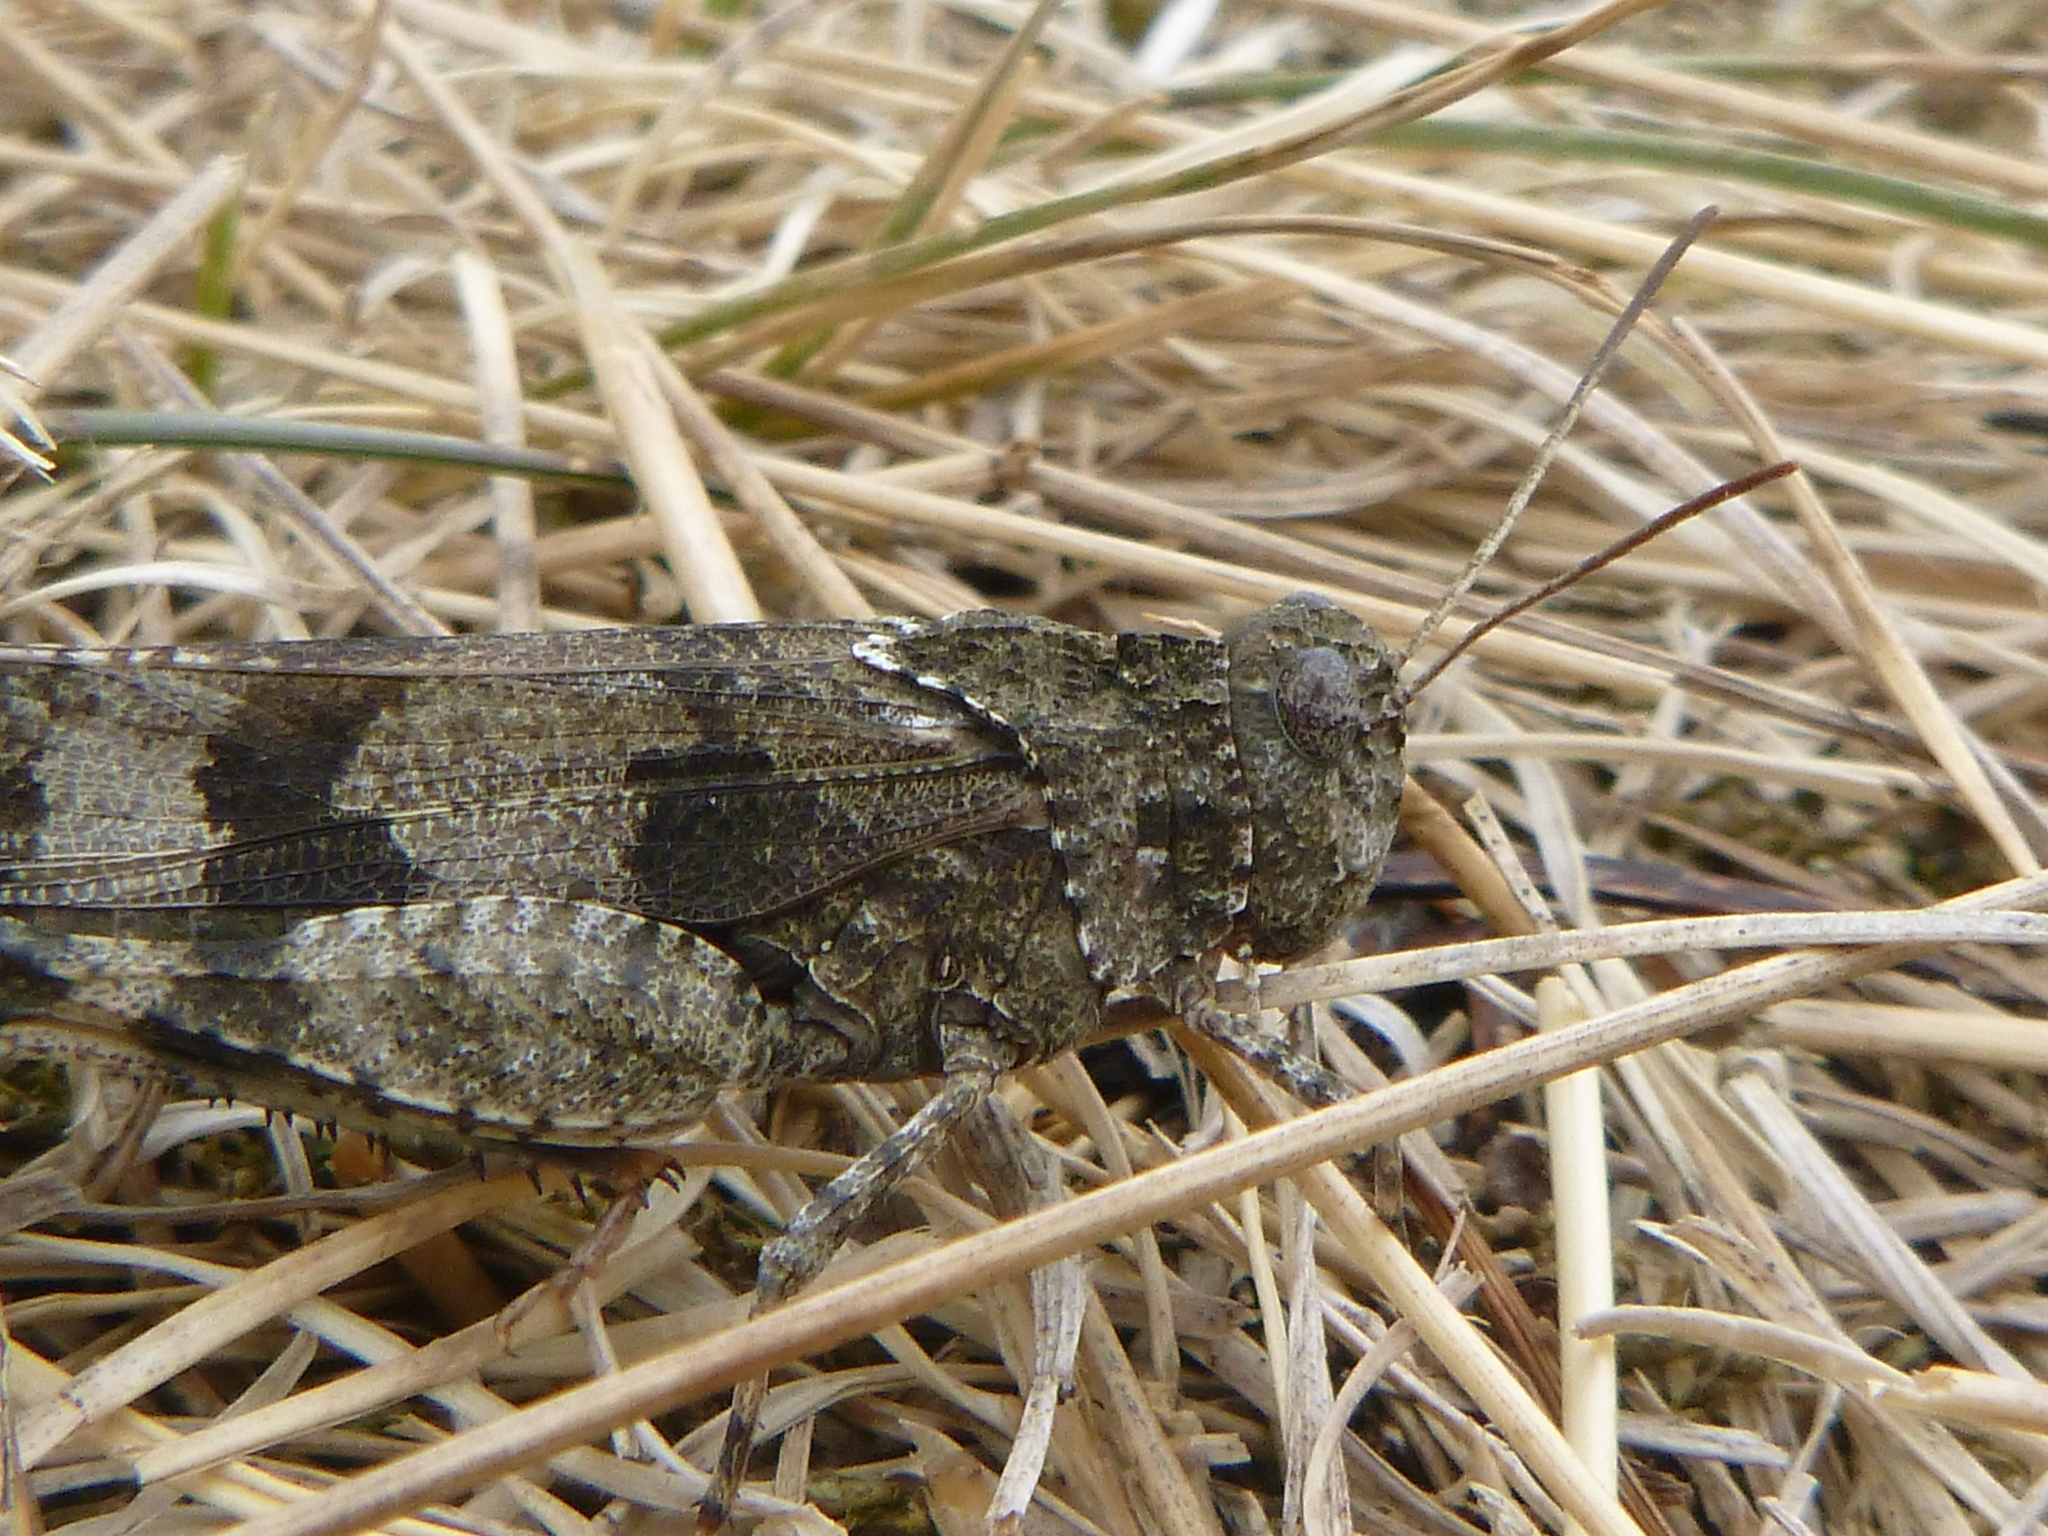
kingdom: Animalia
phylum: Arthropoda
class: Insecta
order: Orthoptera
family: Acrididae
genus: Oedipoda
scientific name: Oedipoda caerulescens
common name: Blue-winged grasshopper
